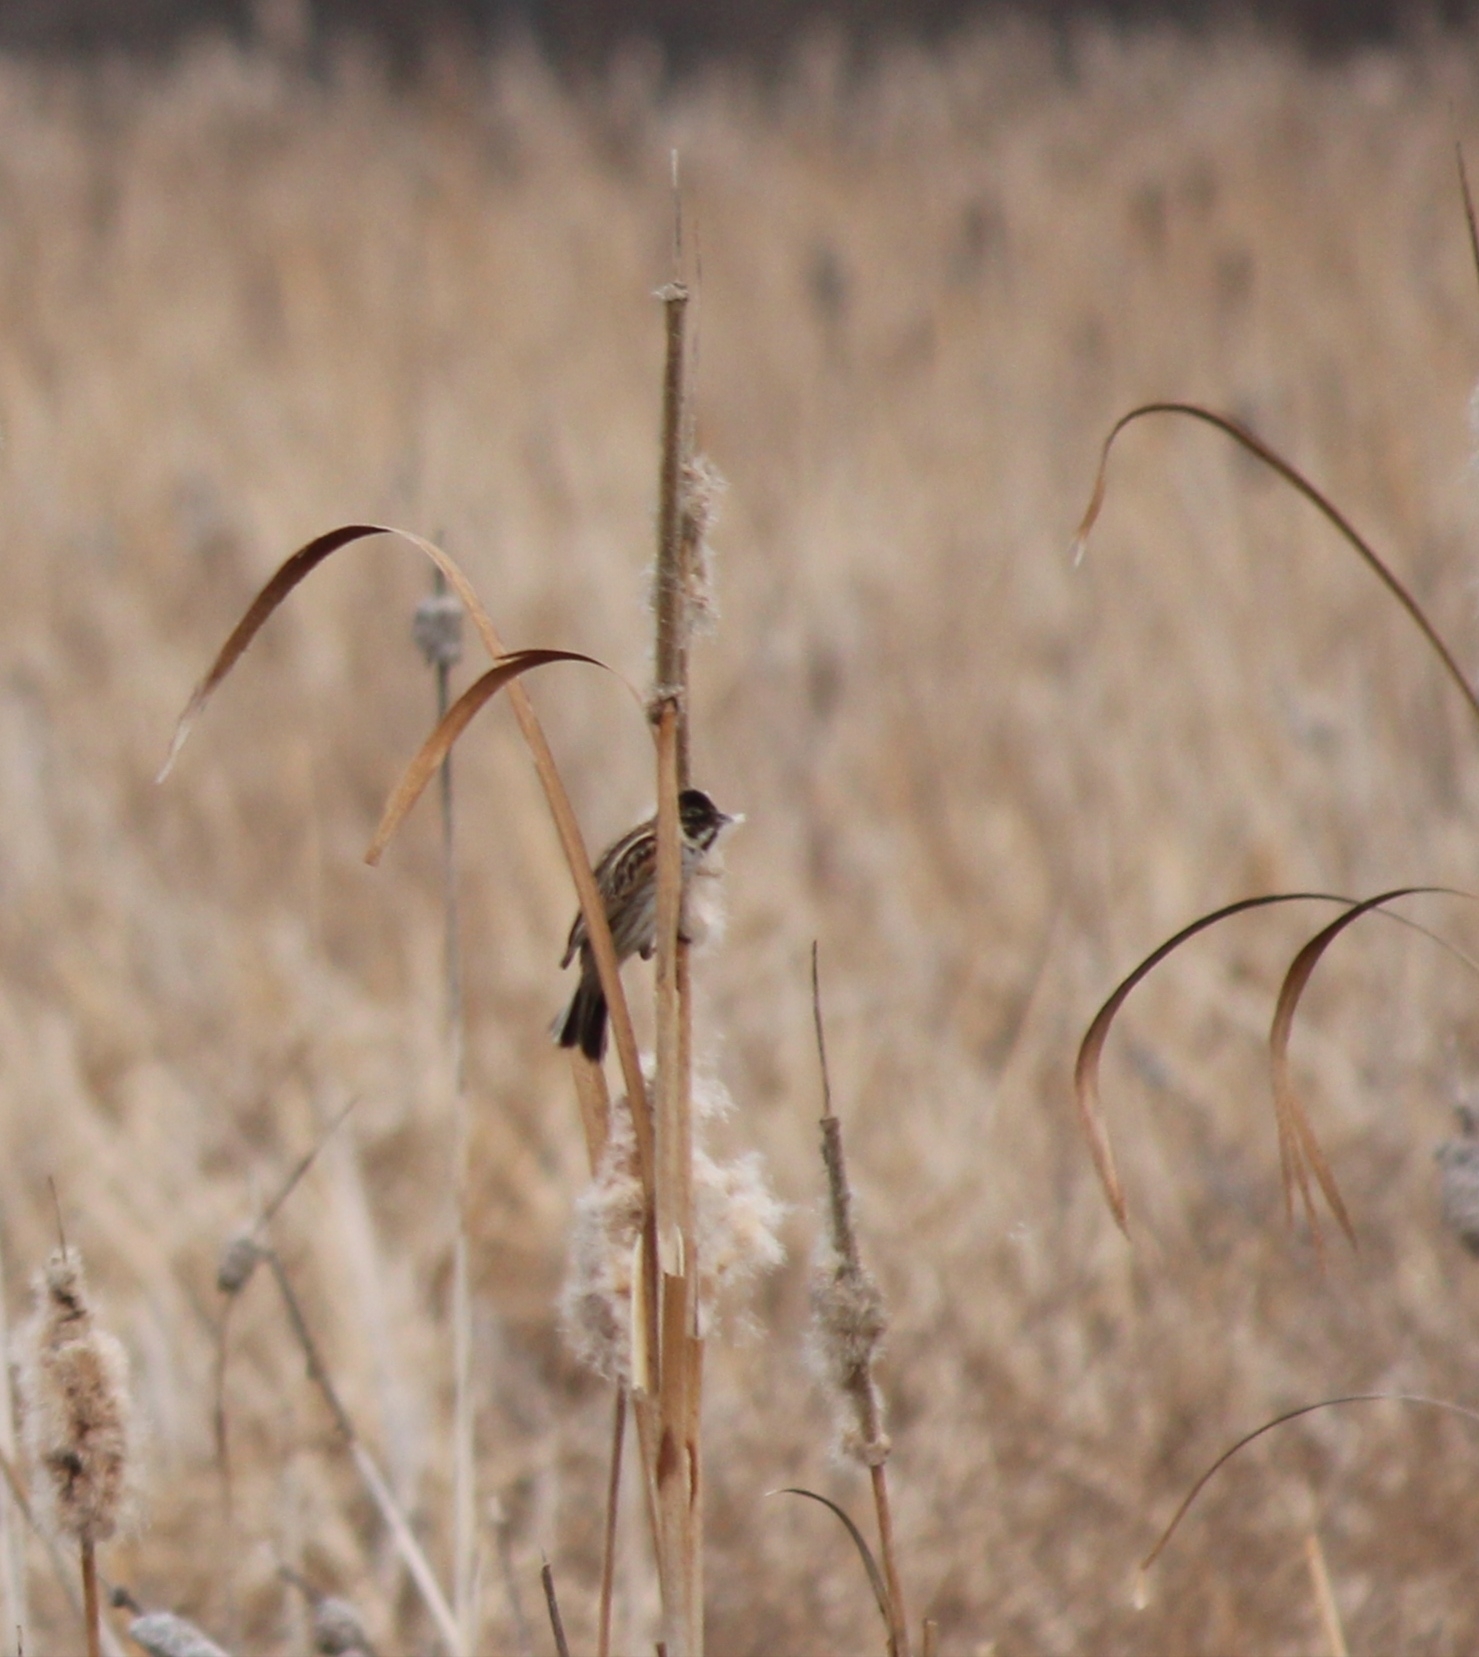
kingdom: Animalia
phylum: Chordata
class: Aves
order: Passeriformes
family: Emberizidae
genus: Emberiza
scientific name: Emberiza schoeniclus
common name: Reed bunting
